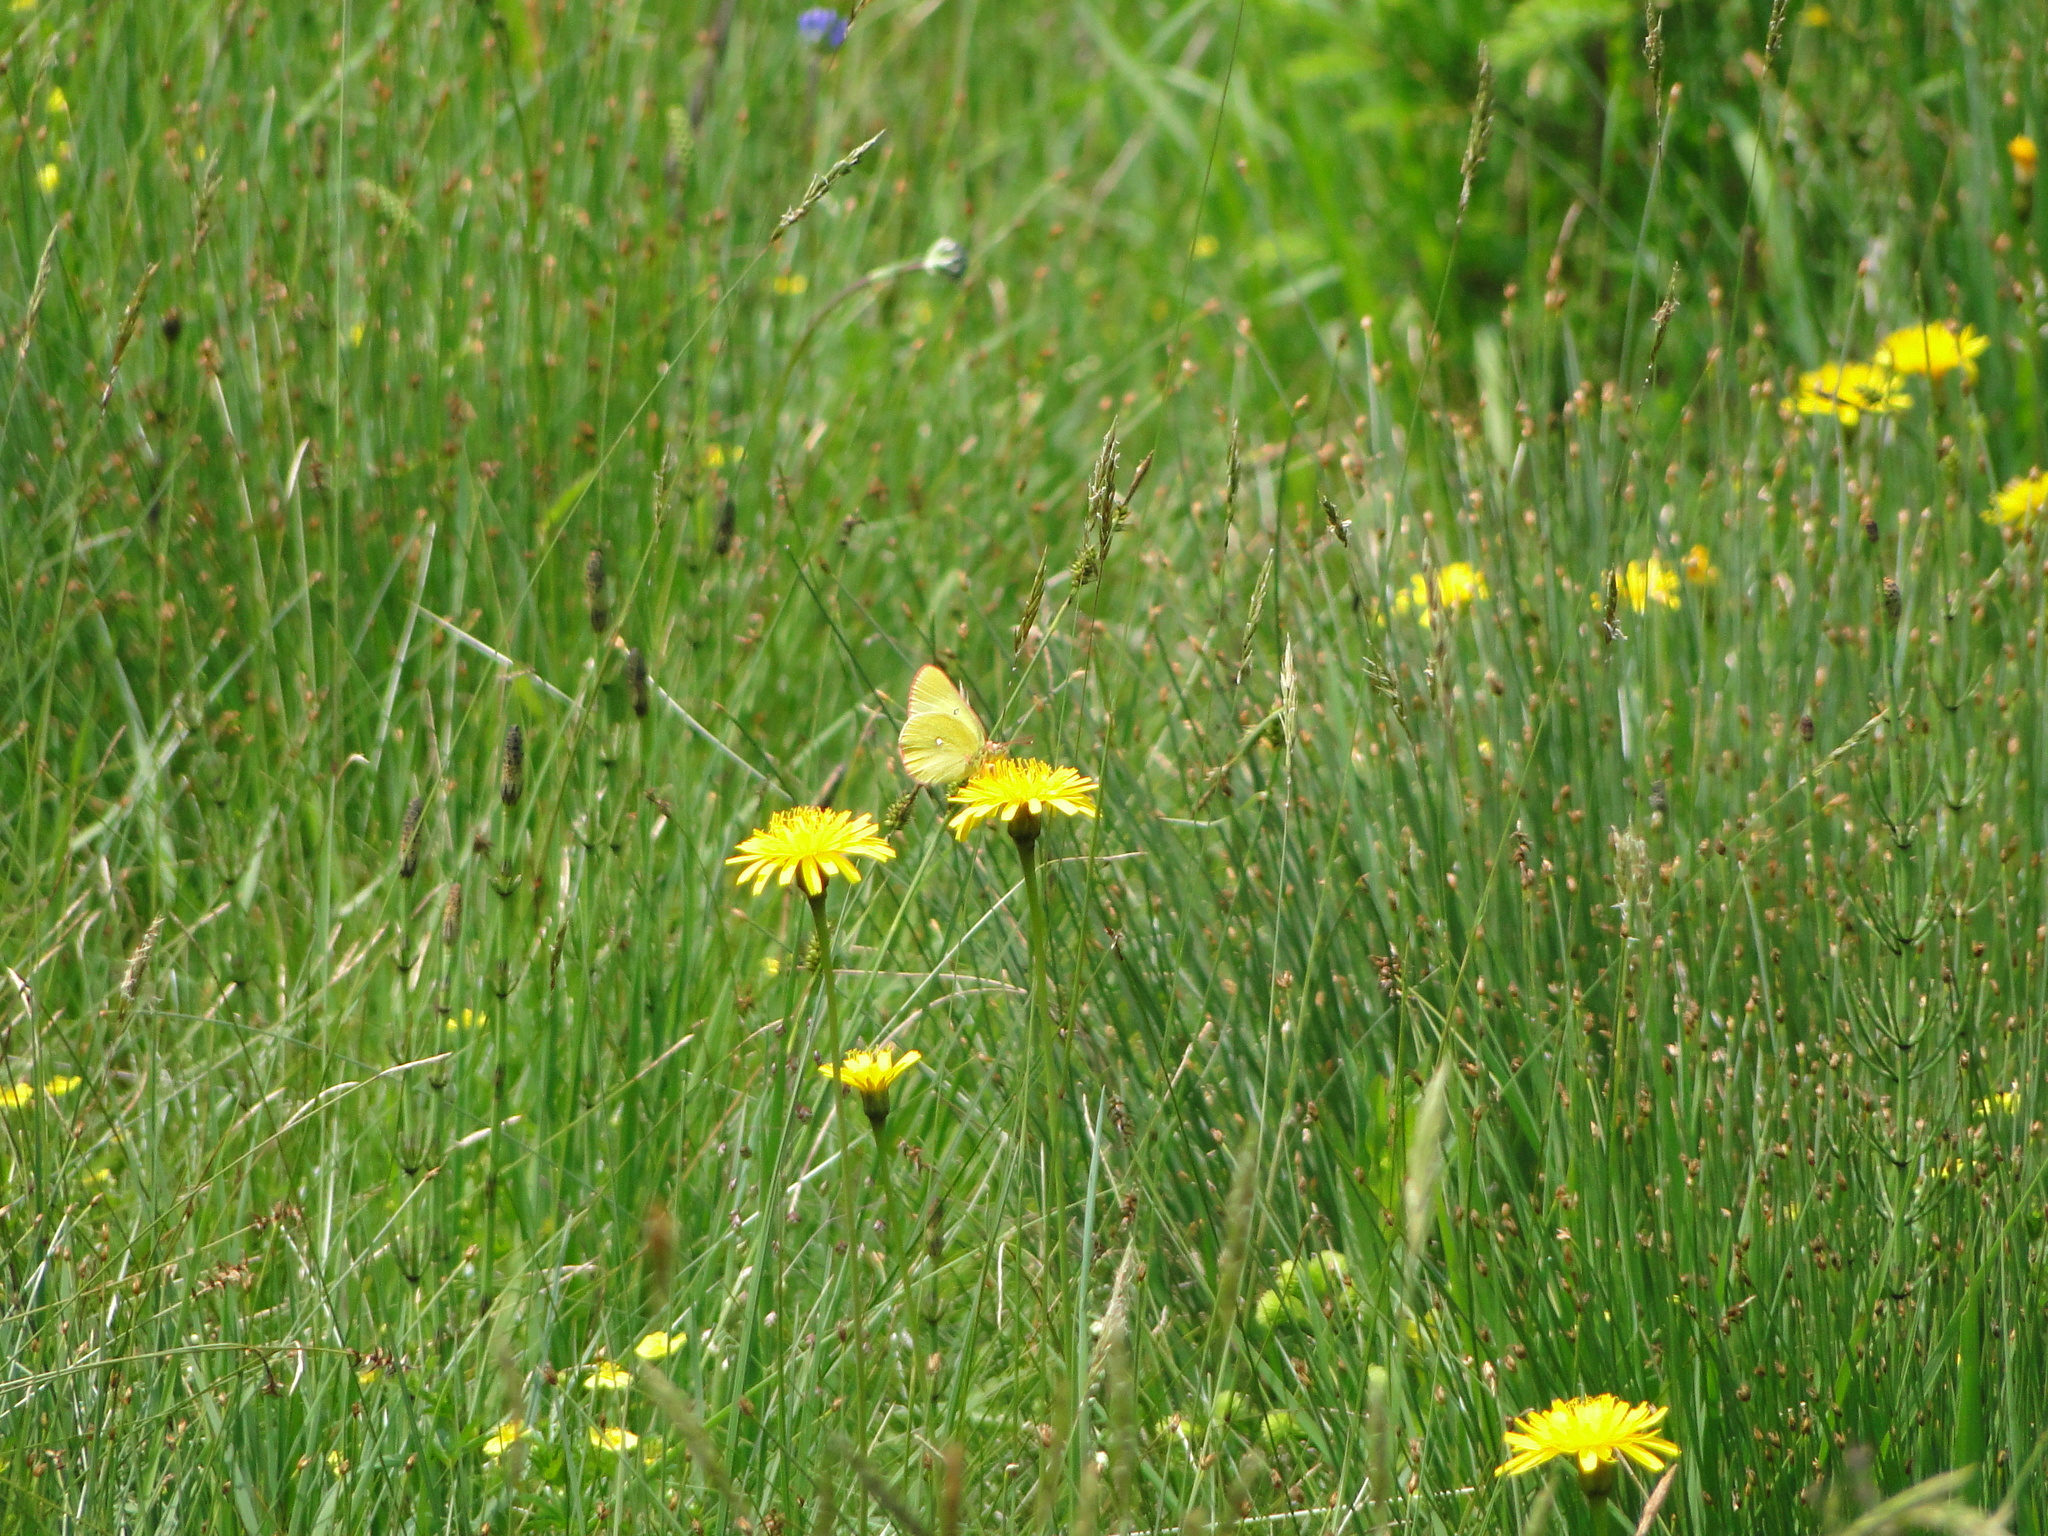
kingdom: Animalia
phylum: Arthropoda
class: Insecta
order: Lepidoptera
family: Pieridae
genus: Colias
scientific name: Colias palaeno
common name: Moorland clouded yellow
